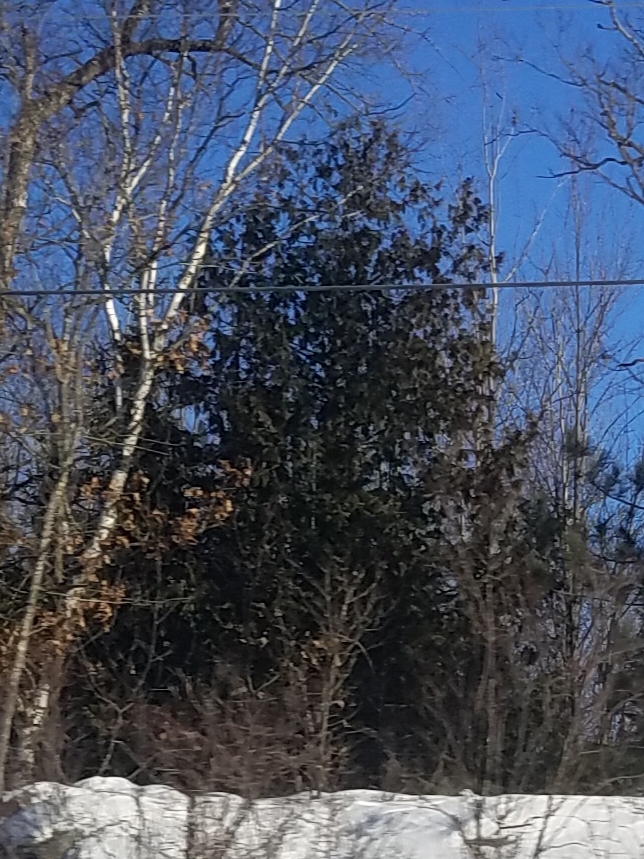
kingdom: Plantae
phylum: Tracheophyta
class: Pinopsida
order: Pinales
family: Cupressaceae
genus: Thuja
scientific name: Thuja occidentalis
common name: Northern white-cedar
